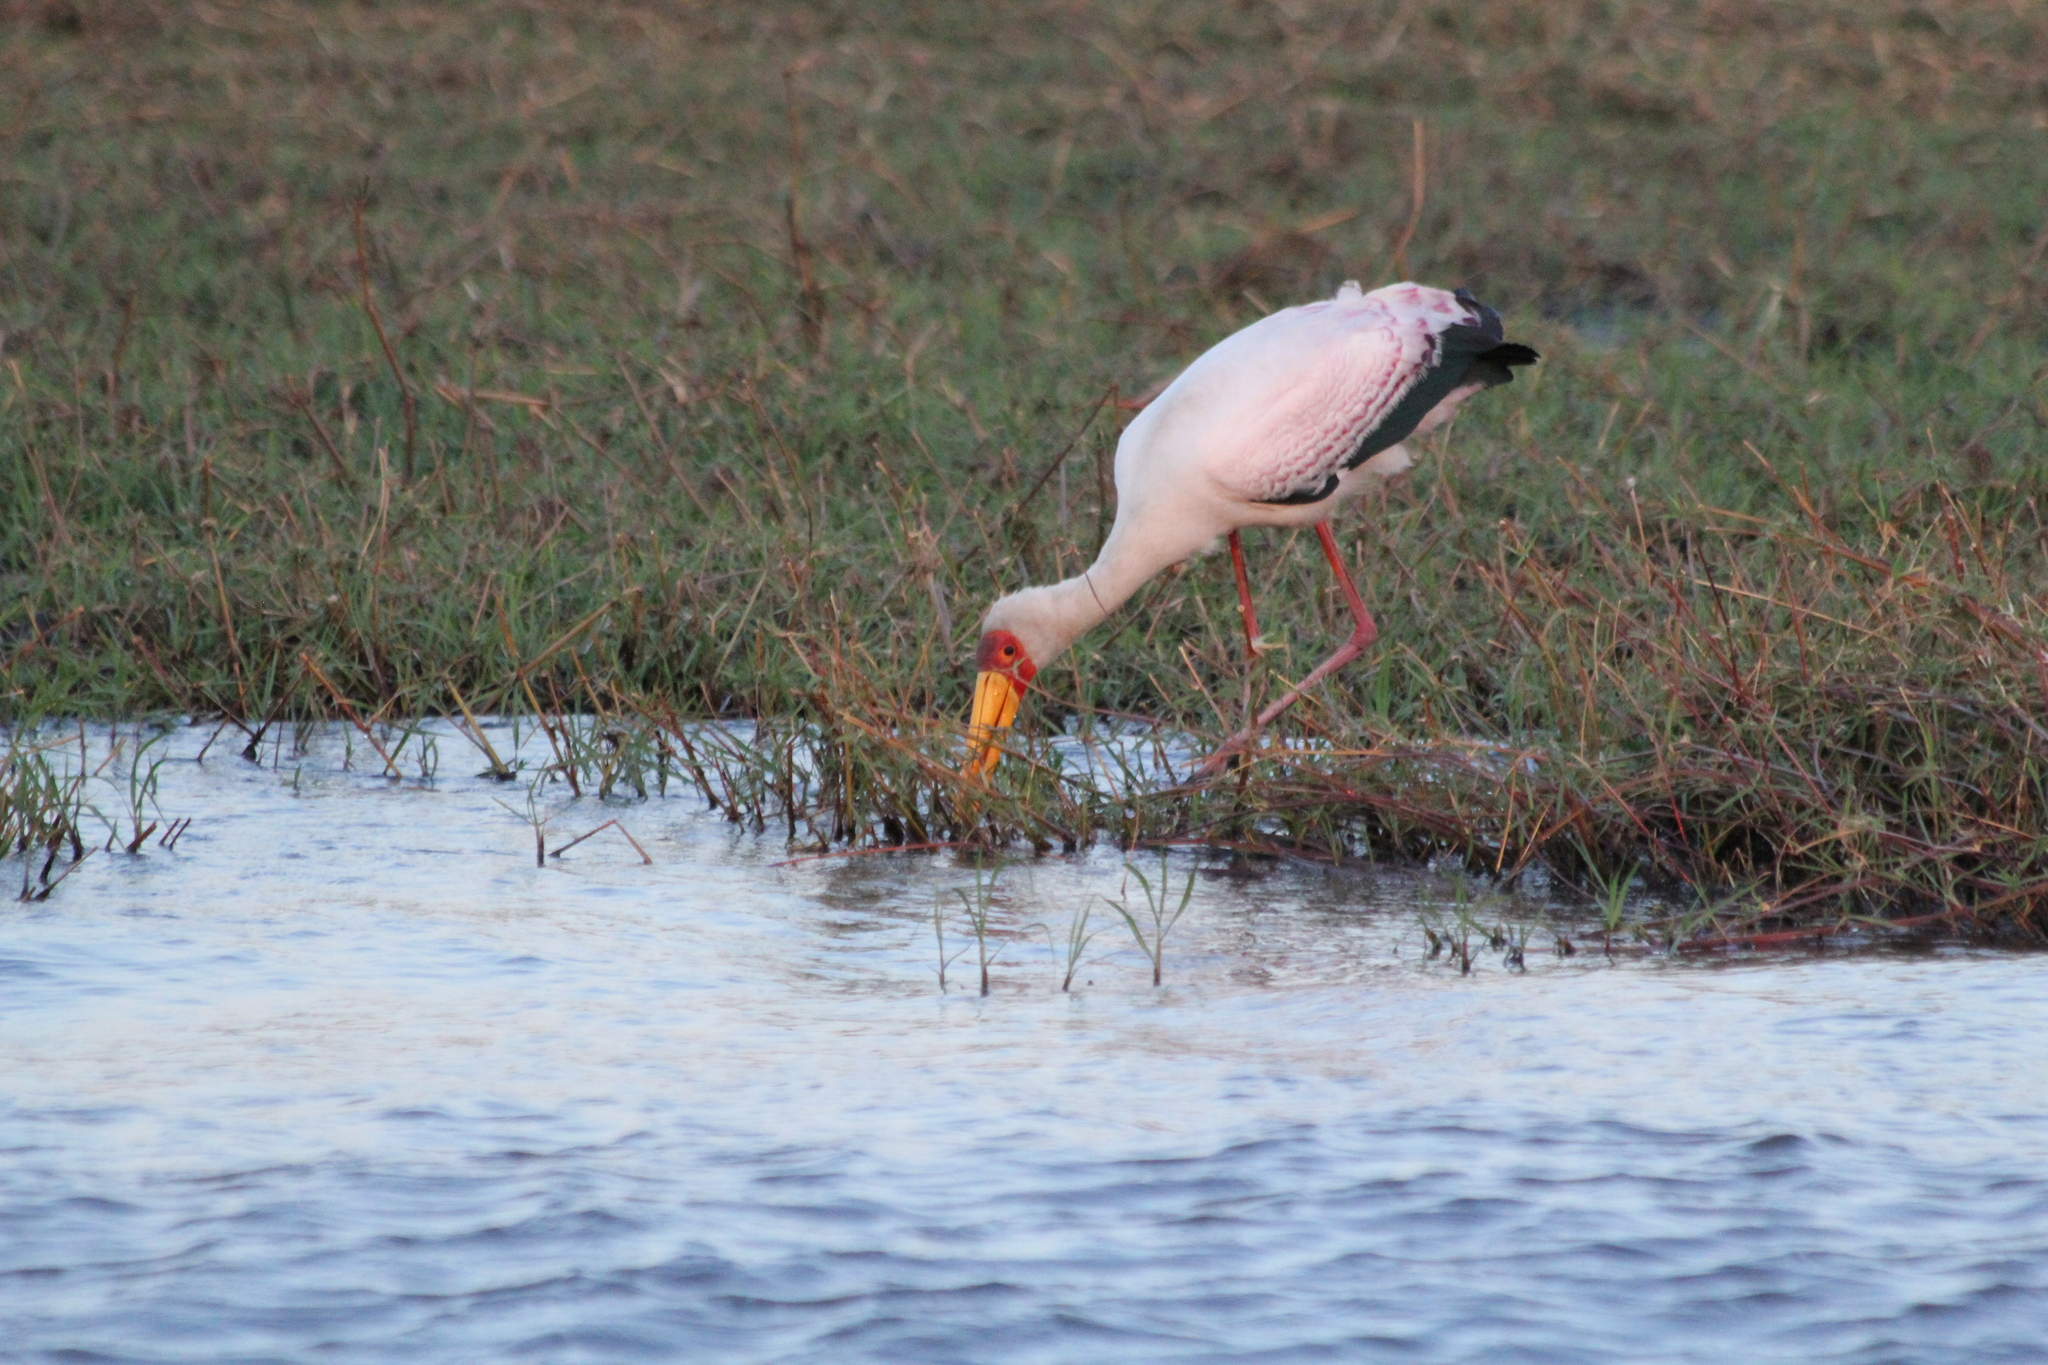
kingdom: Animalia
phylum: Chordata
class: Aves
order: Ciconiiformes
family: Ciconiidae
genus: Mycteria
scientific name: Mycteria ibis
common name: Yellow-billed stork
